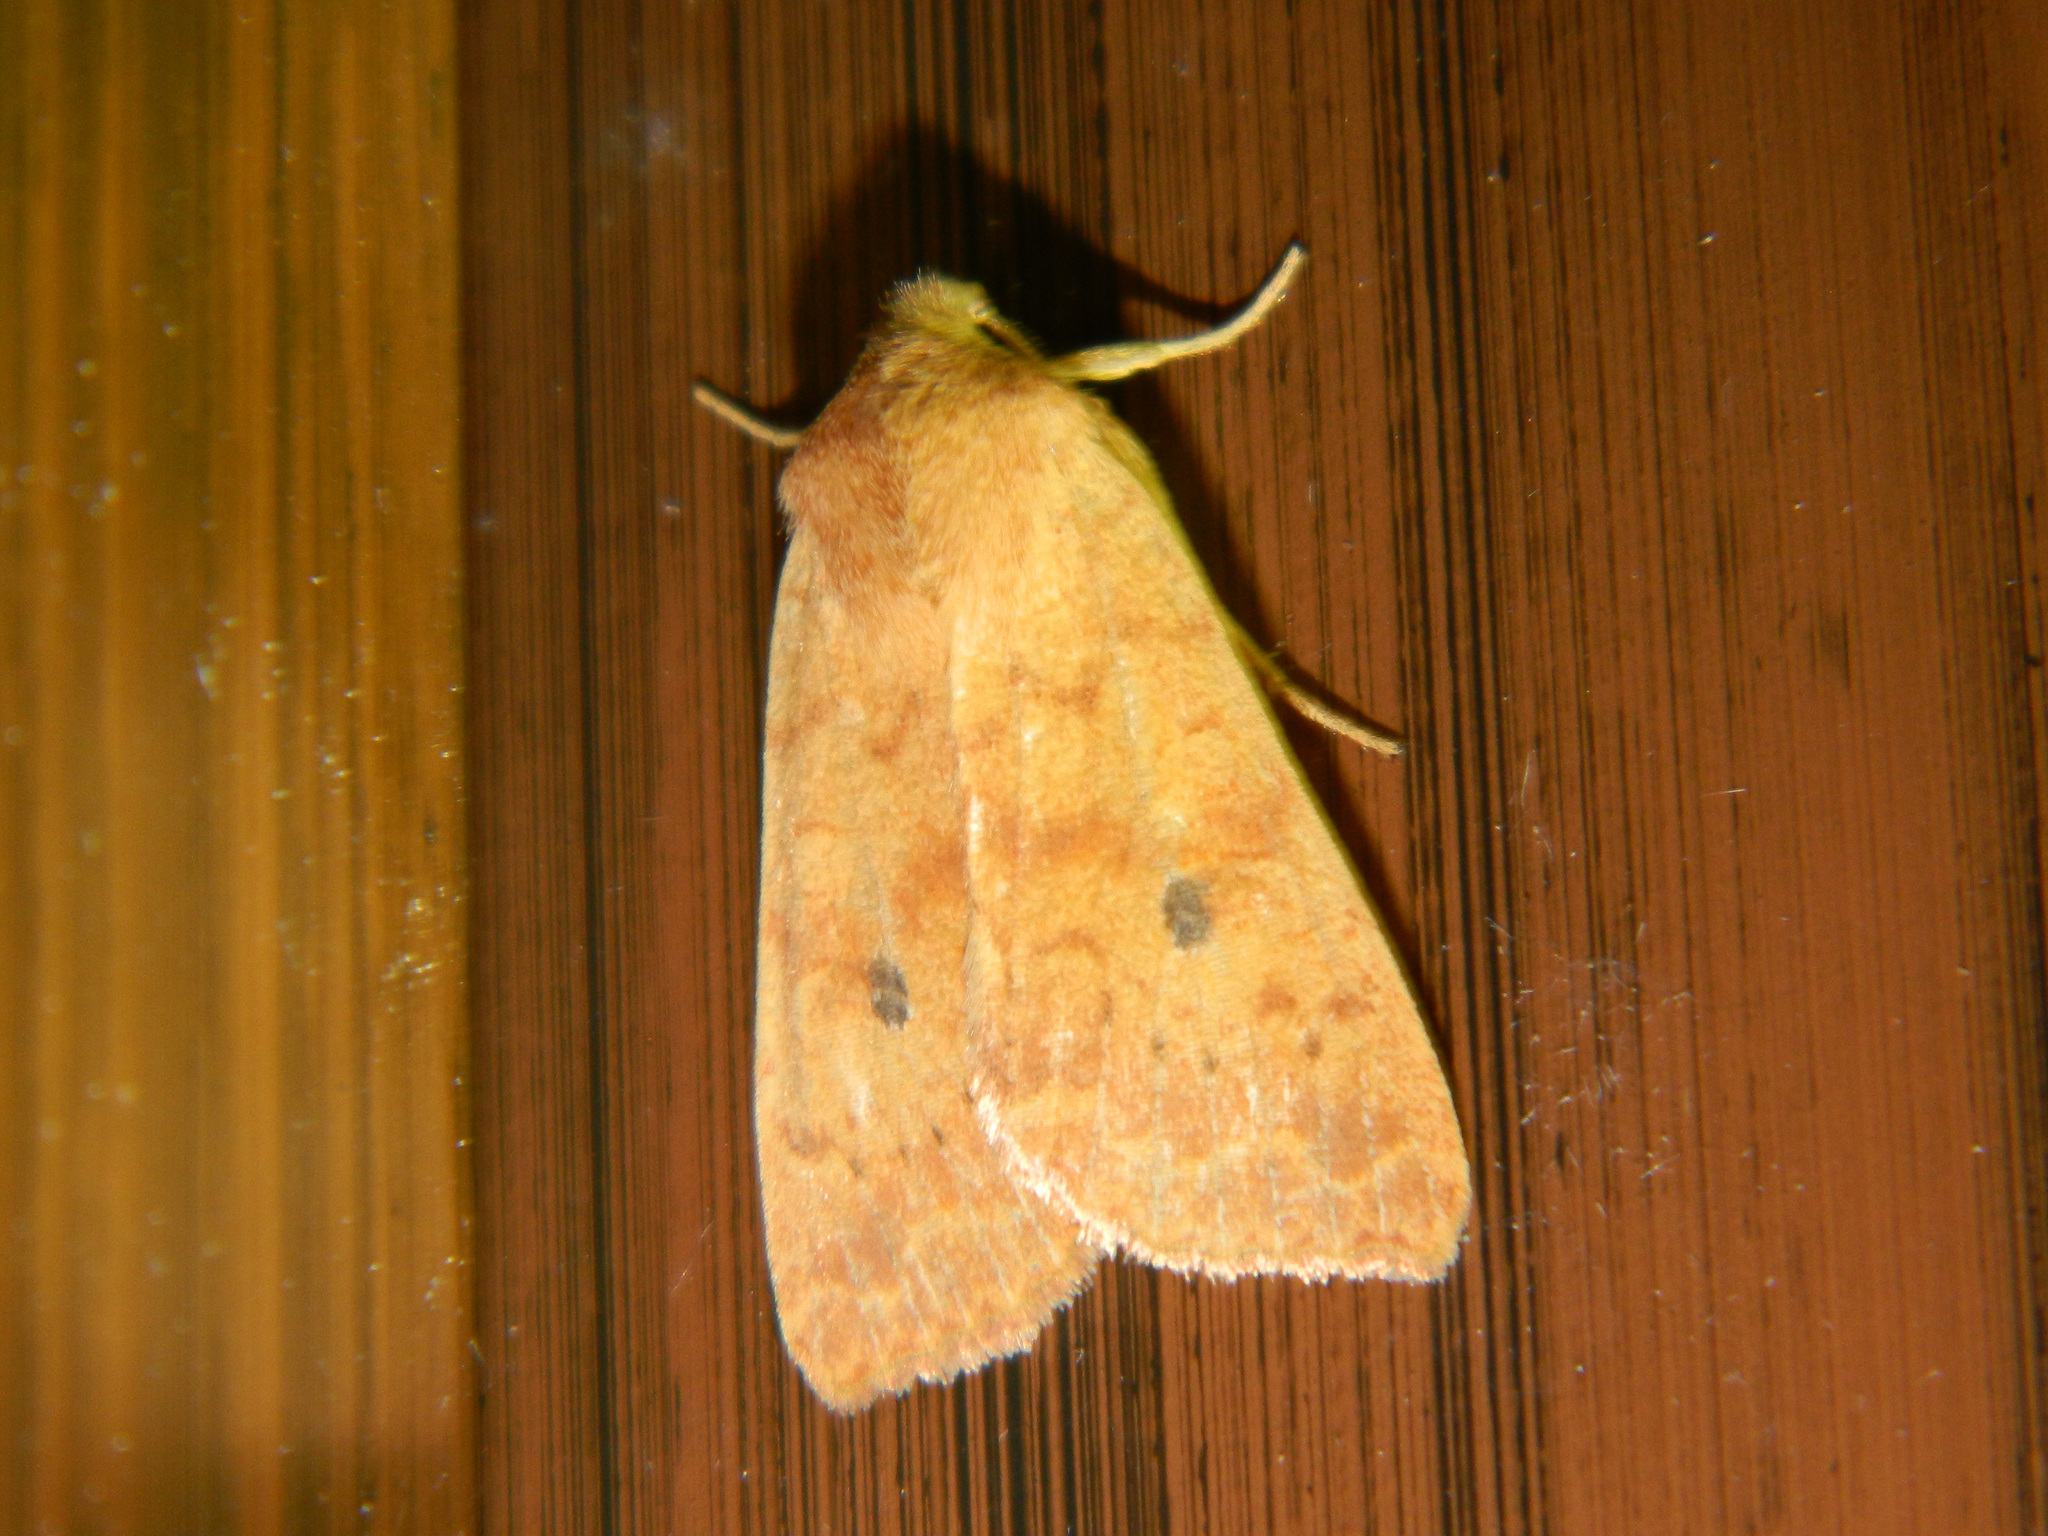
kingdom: Animalia
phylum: Arthropoda
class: Insecta
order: Lepidoptera
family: Noctuidae
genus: Agrochola
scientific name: Agrochola bicolorago
